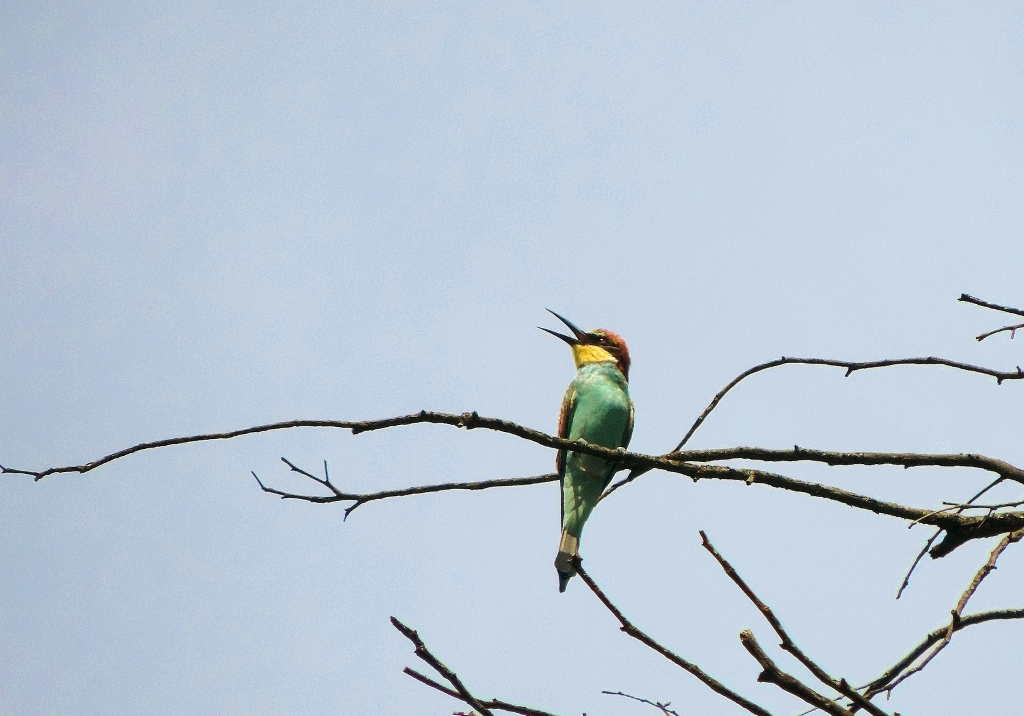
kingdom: Animalia
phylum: Chordata
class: Aves
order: Coraciiformes
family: Meropidae
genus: Merops
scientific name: Merops apiaster
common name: European bee-eater
